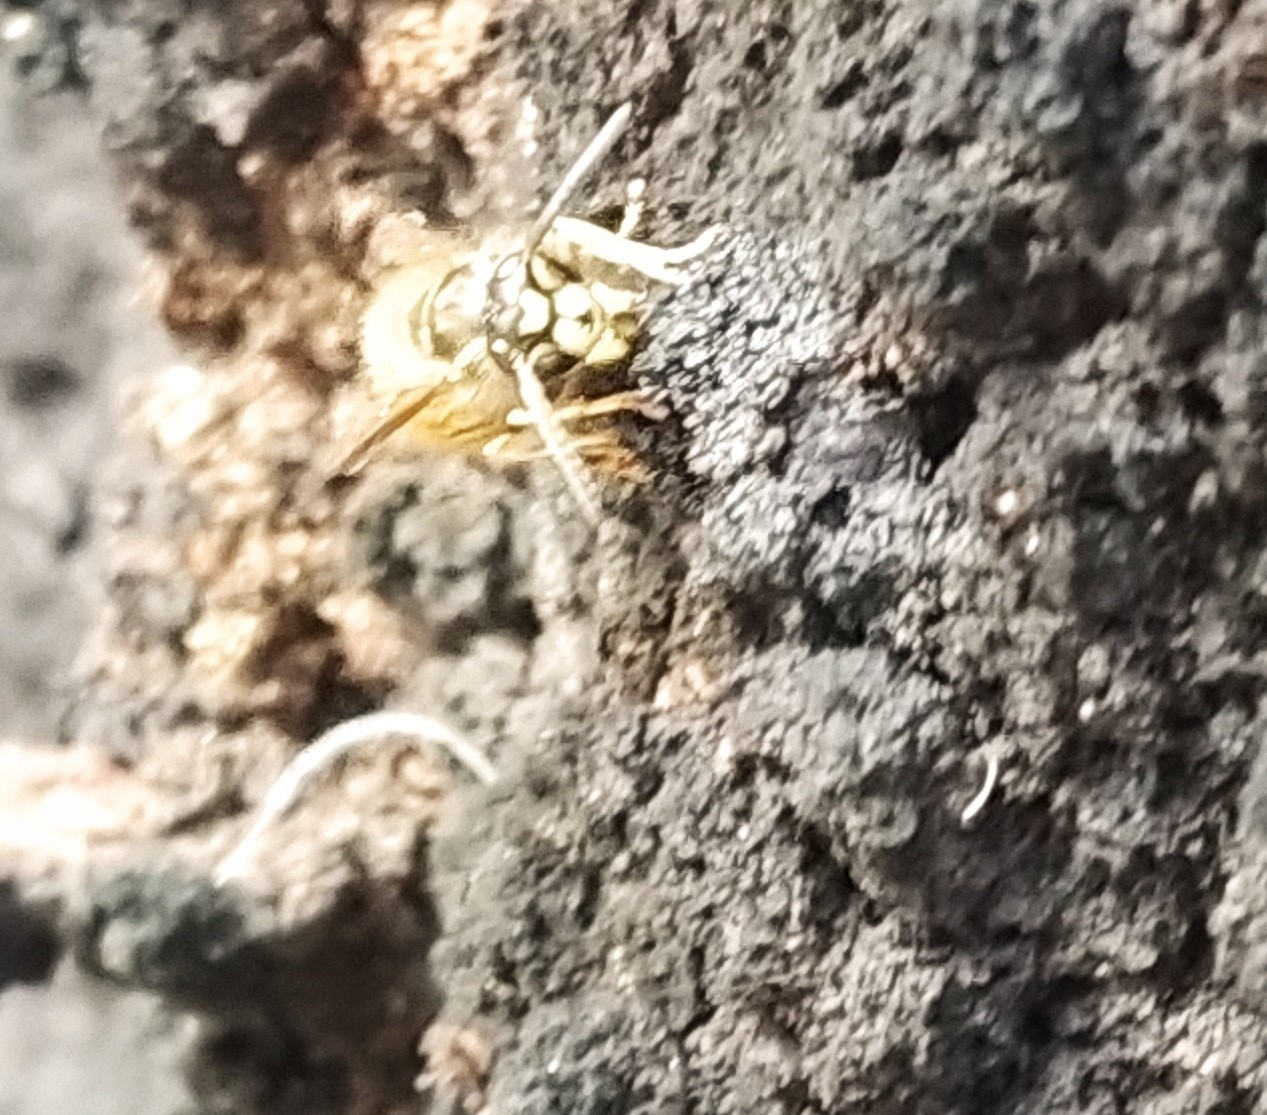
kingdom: Animalia
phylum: Arthropoda
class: Insecta
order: Hymenoptera
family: Vespidae
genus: Vespula
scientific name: Vespula
